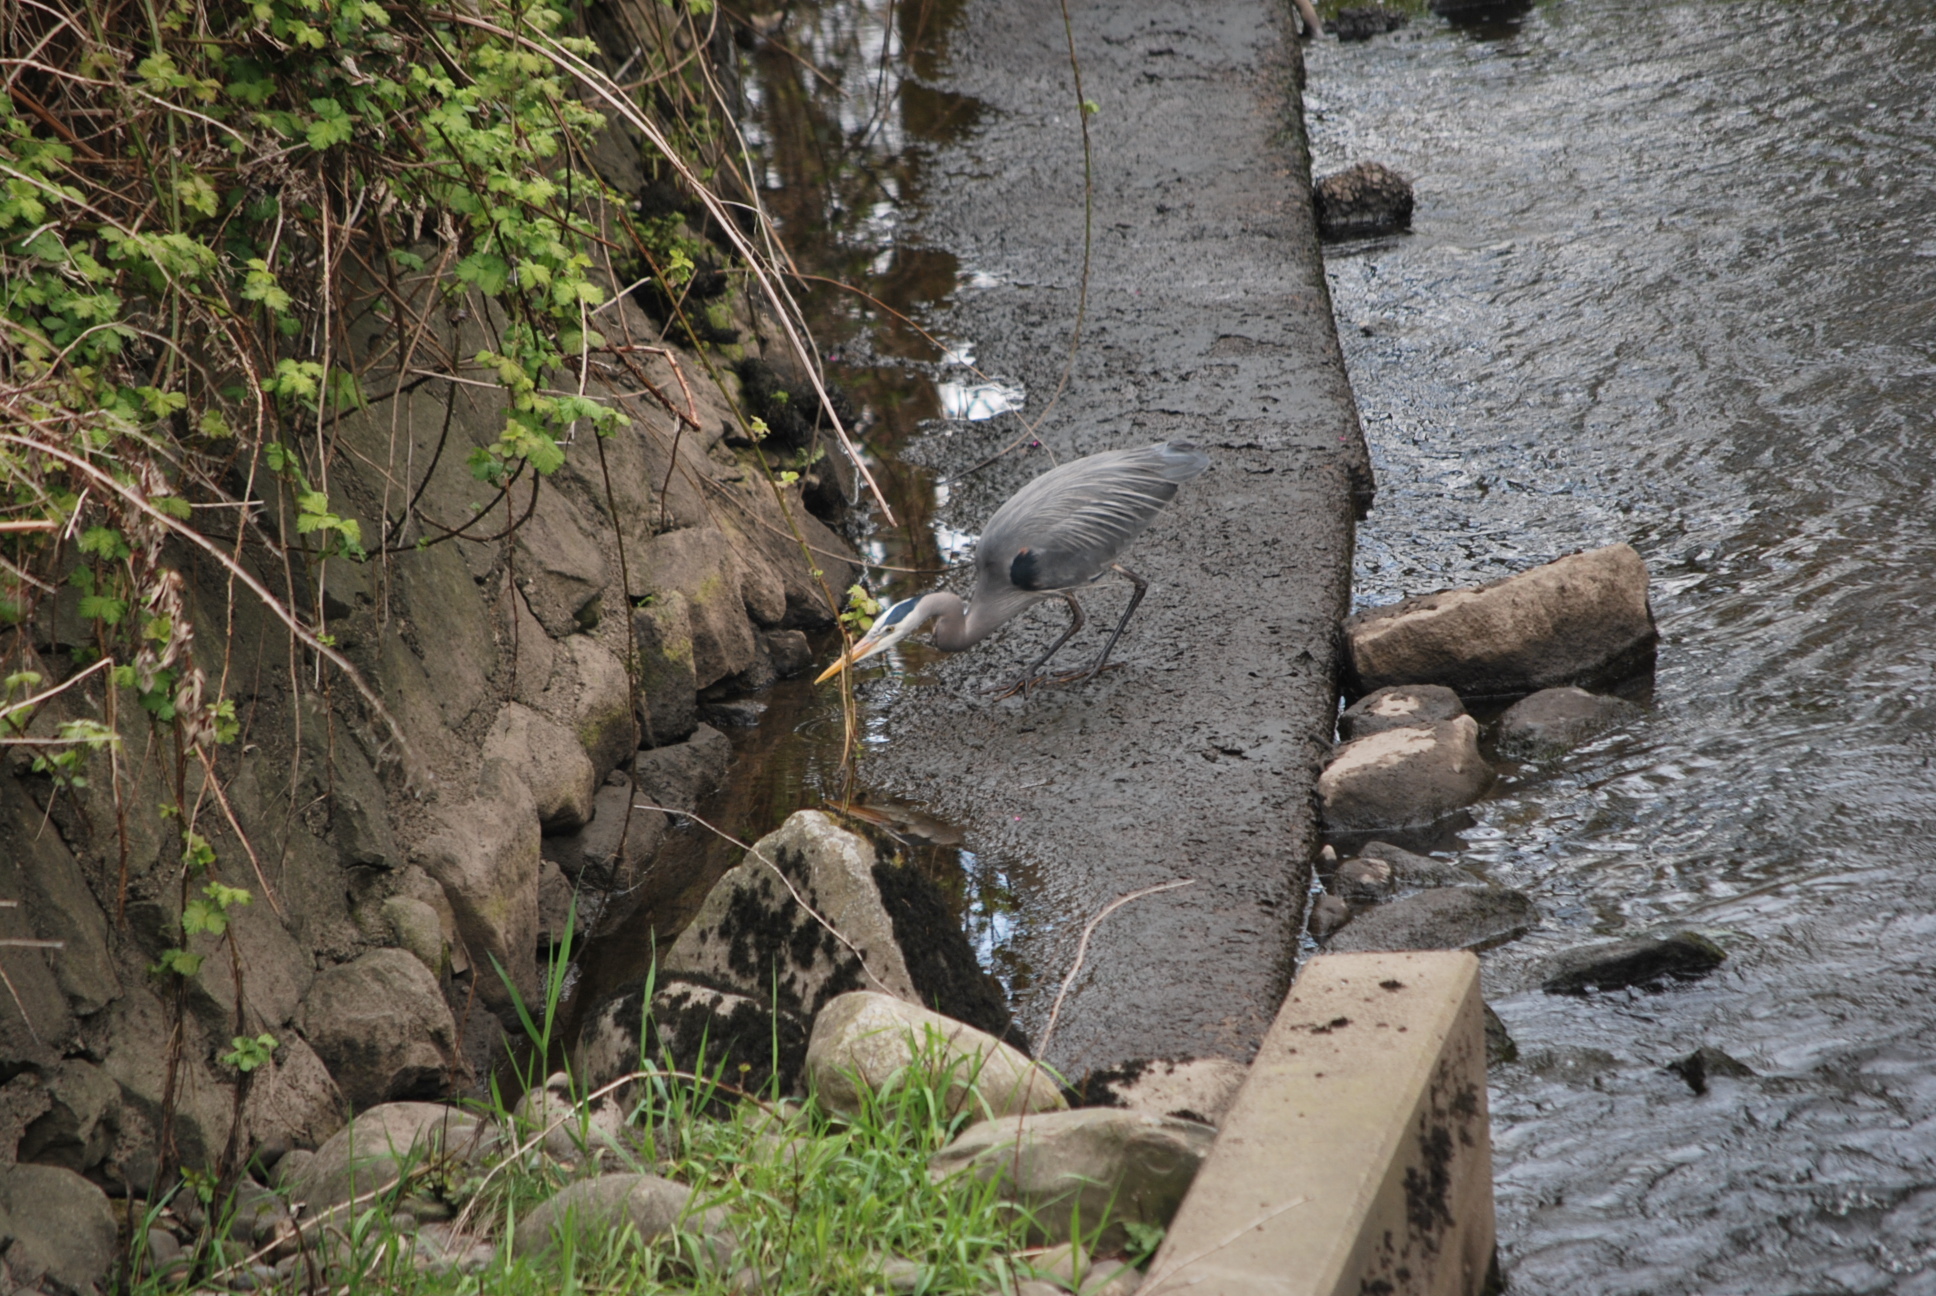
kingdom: Animalia
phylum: Chordata
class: Aves
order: Pelecaniformes
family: Ardeidae
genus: Ardea
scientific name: Ardea herodias
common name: Great blue heron
